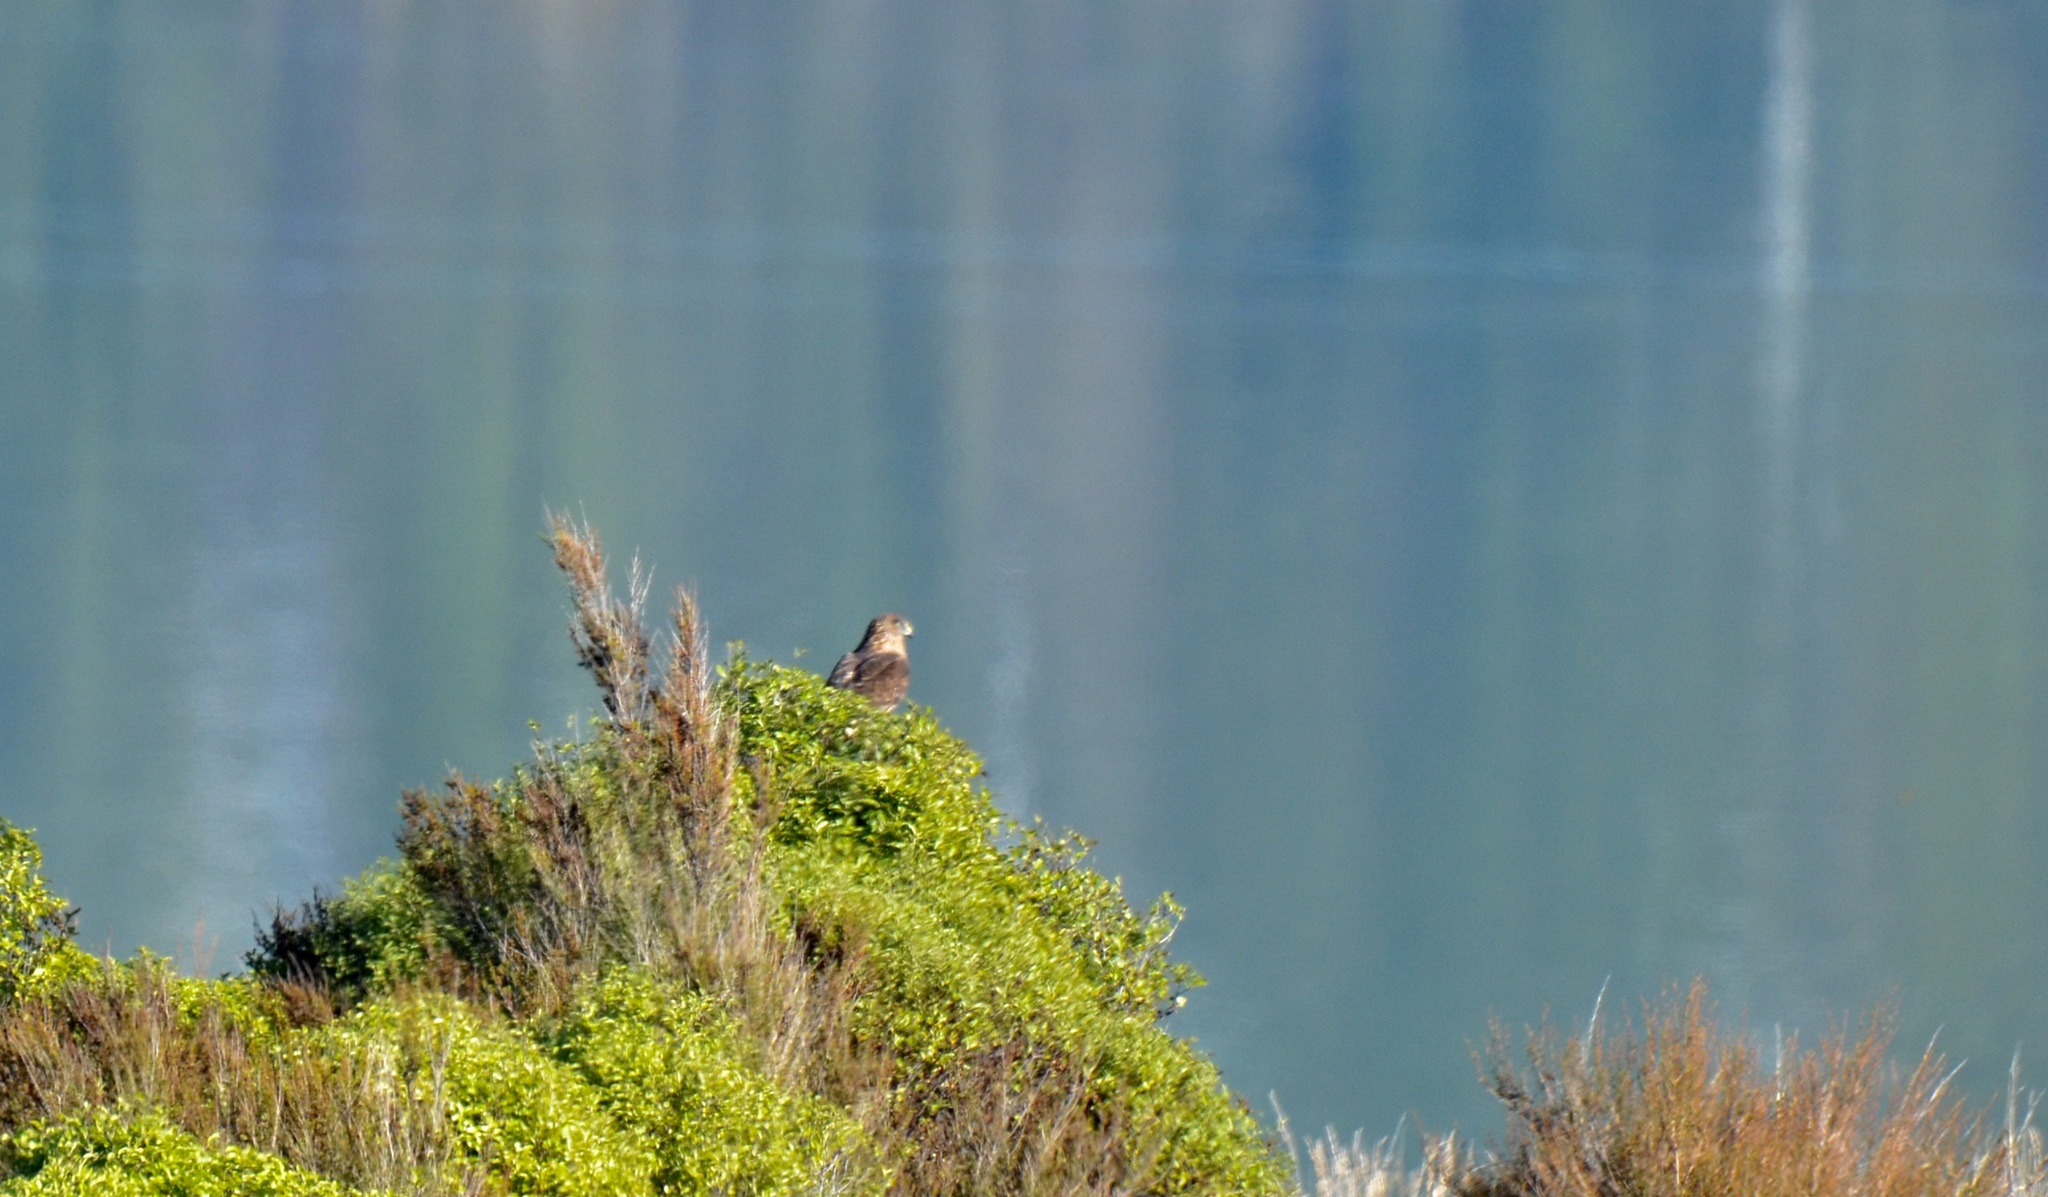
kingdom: Animalia
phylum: Chordata
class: Aves
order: Accipitriformes
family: Accipitridae
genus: Circus
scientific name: Circus approximans
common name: Swamp harrier
